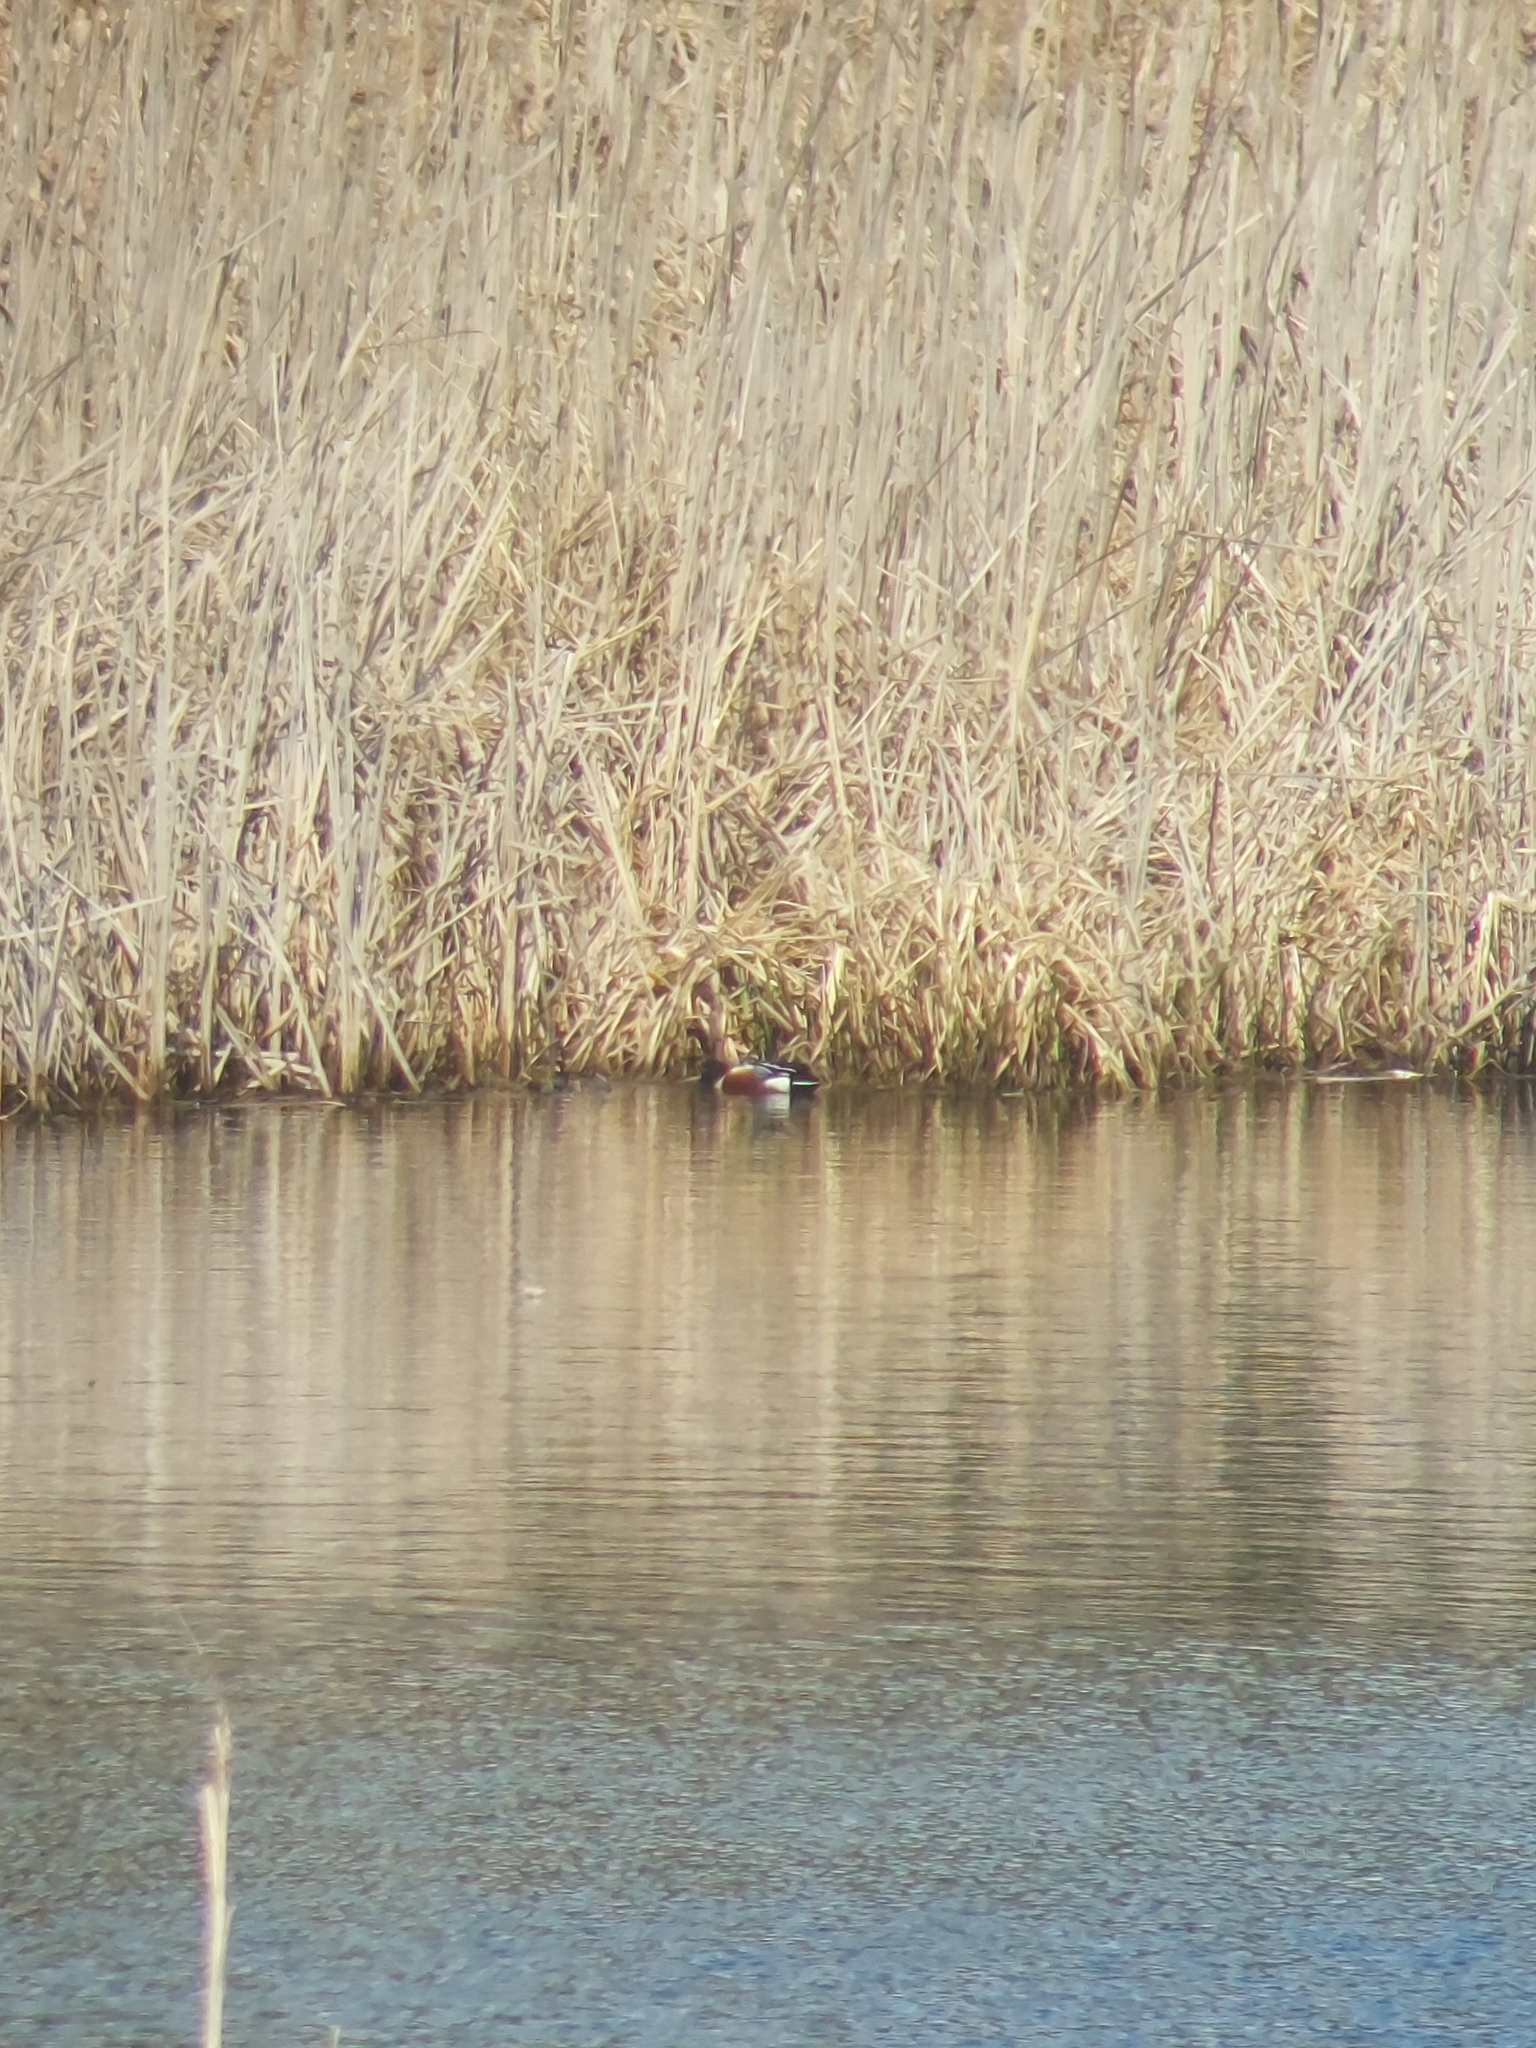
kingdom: Animalia
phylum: Chordata
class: Aves
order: Anseriformes
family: Anatidae
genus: Spatula
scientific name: Spatula clypeata
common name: Northern shoveler
